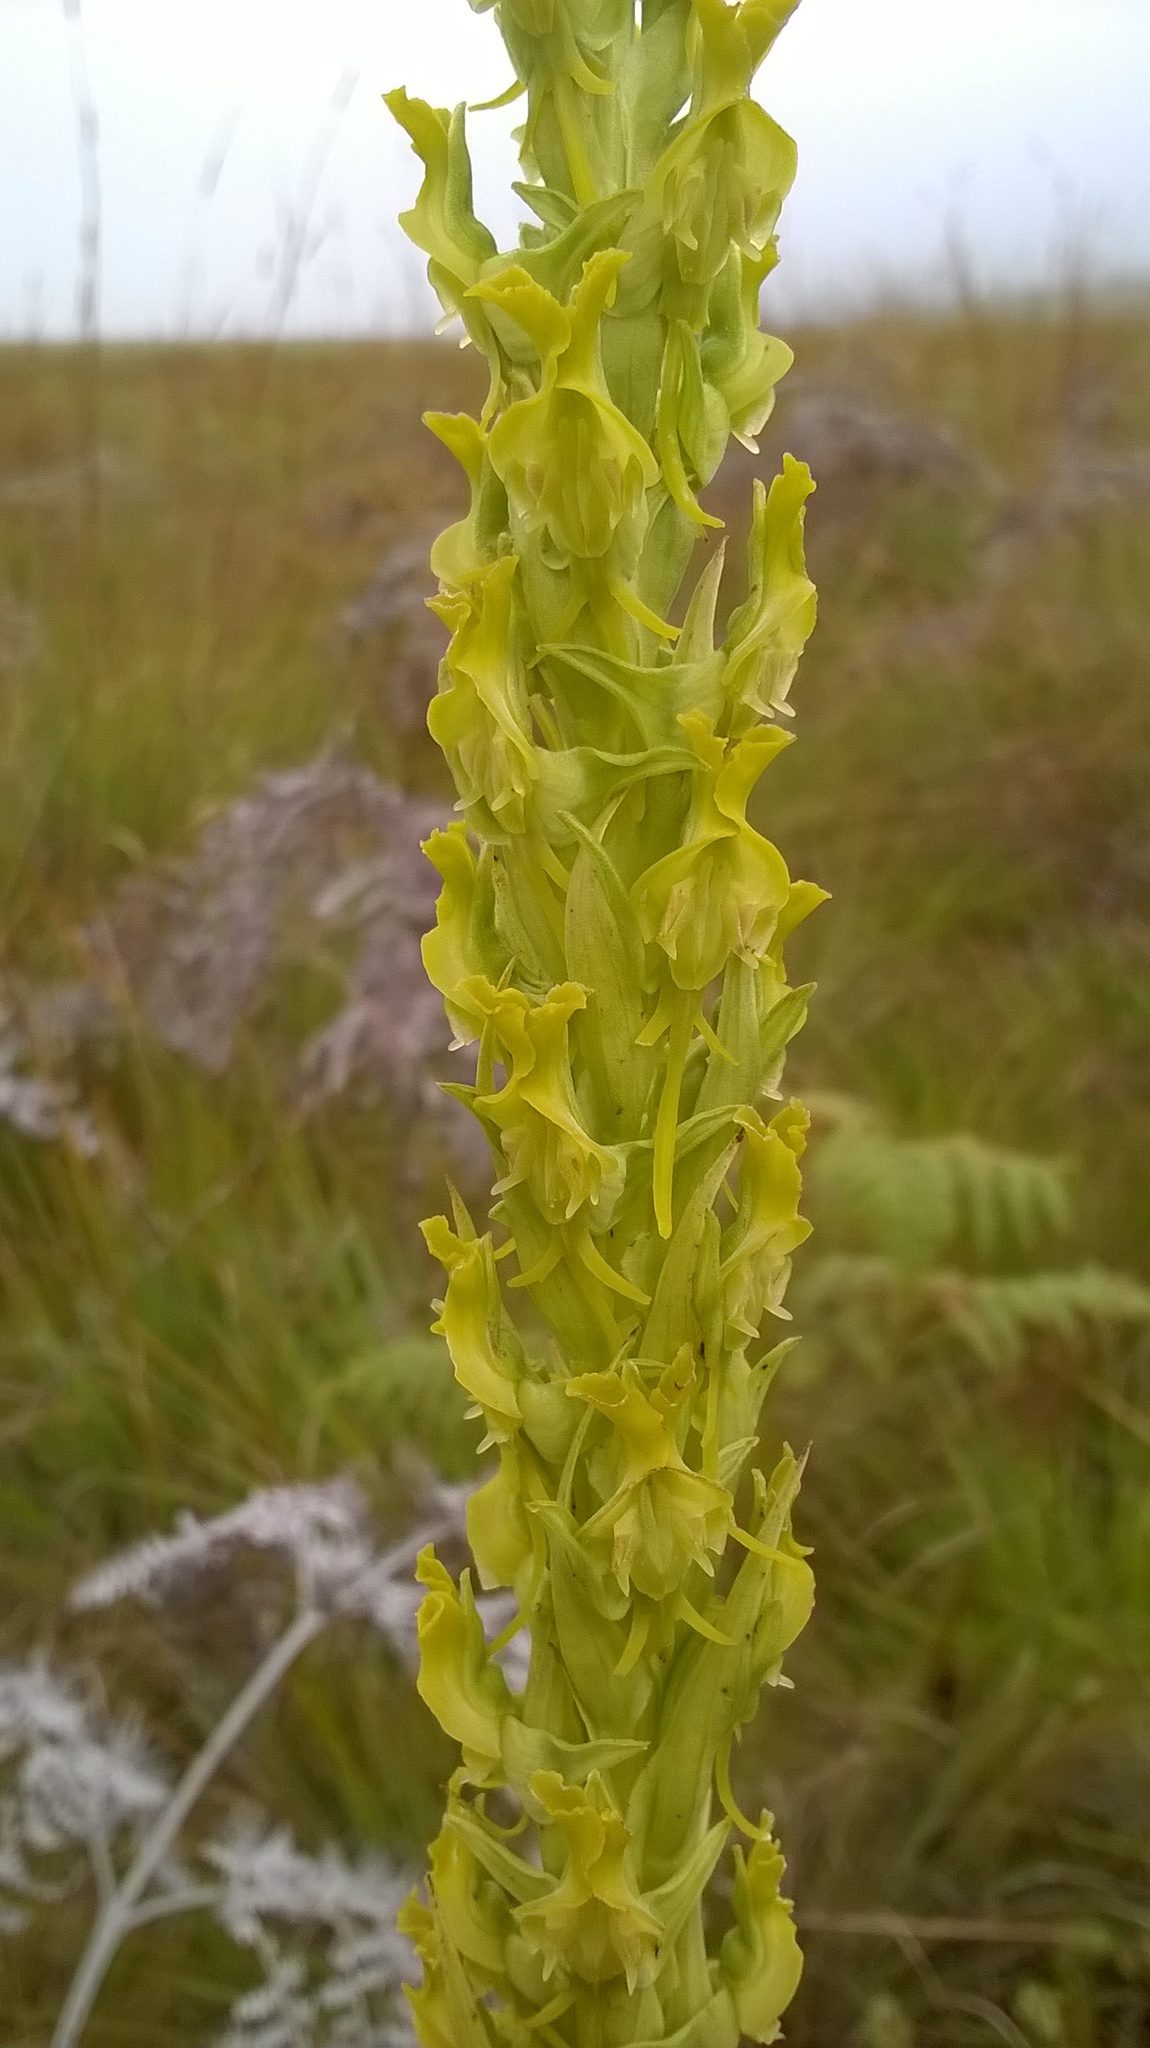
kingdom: Plantae
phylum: Tracheophyta
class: Liliopsida
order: Asparagales
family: Orchidaceae
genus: Roeperocharis
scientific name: Roeperocharis wentzeliana
